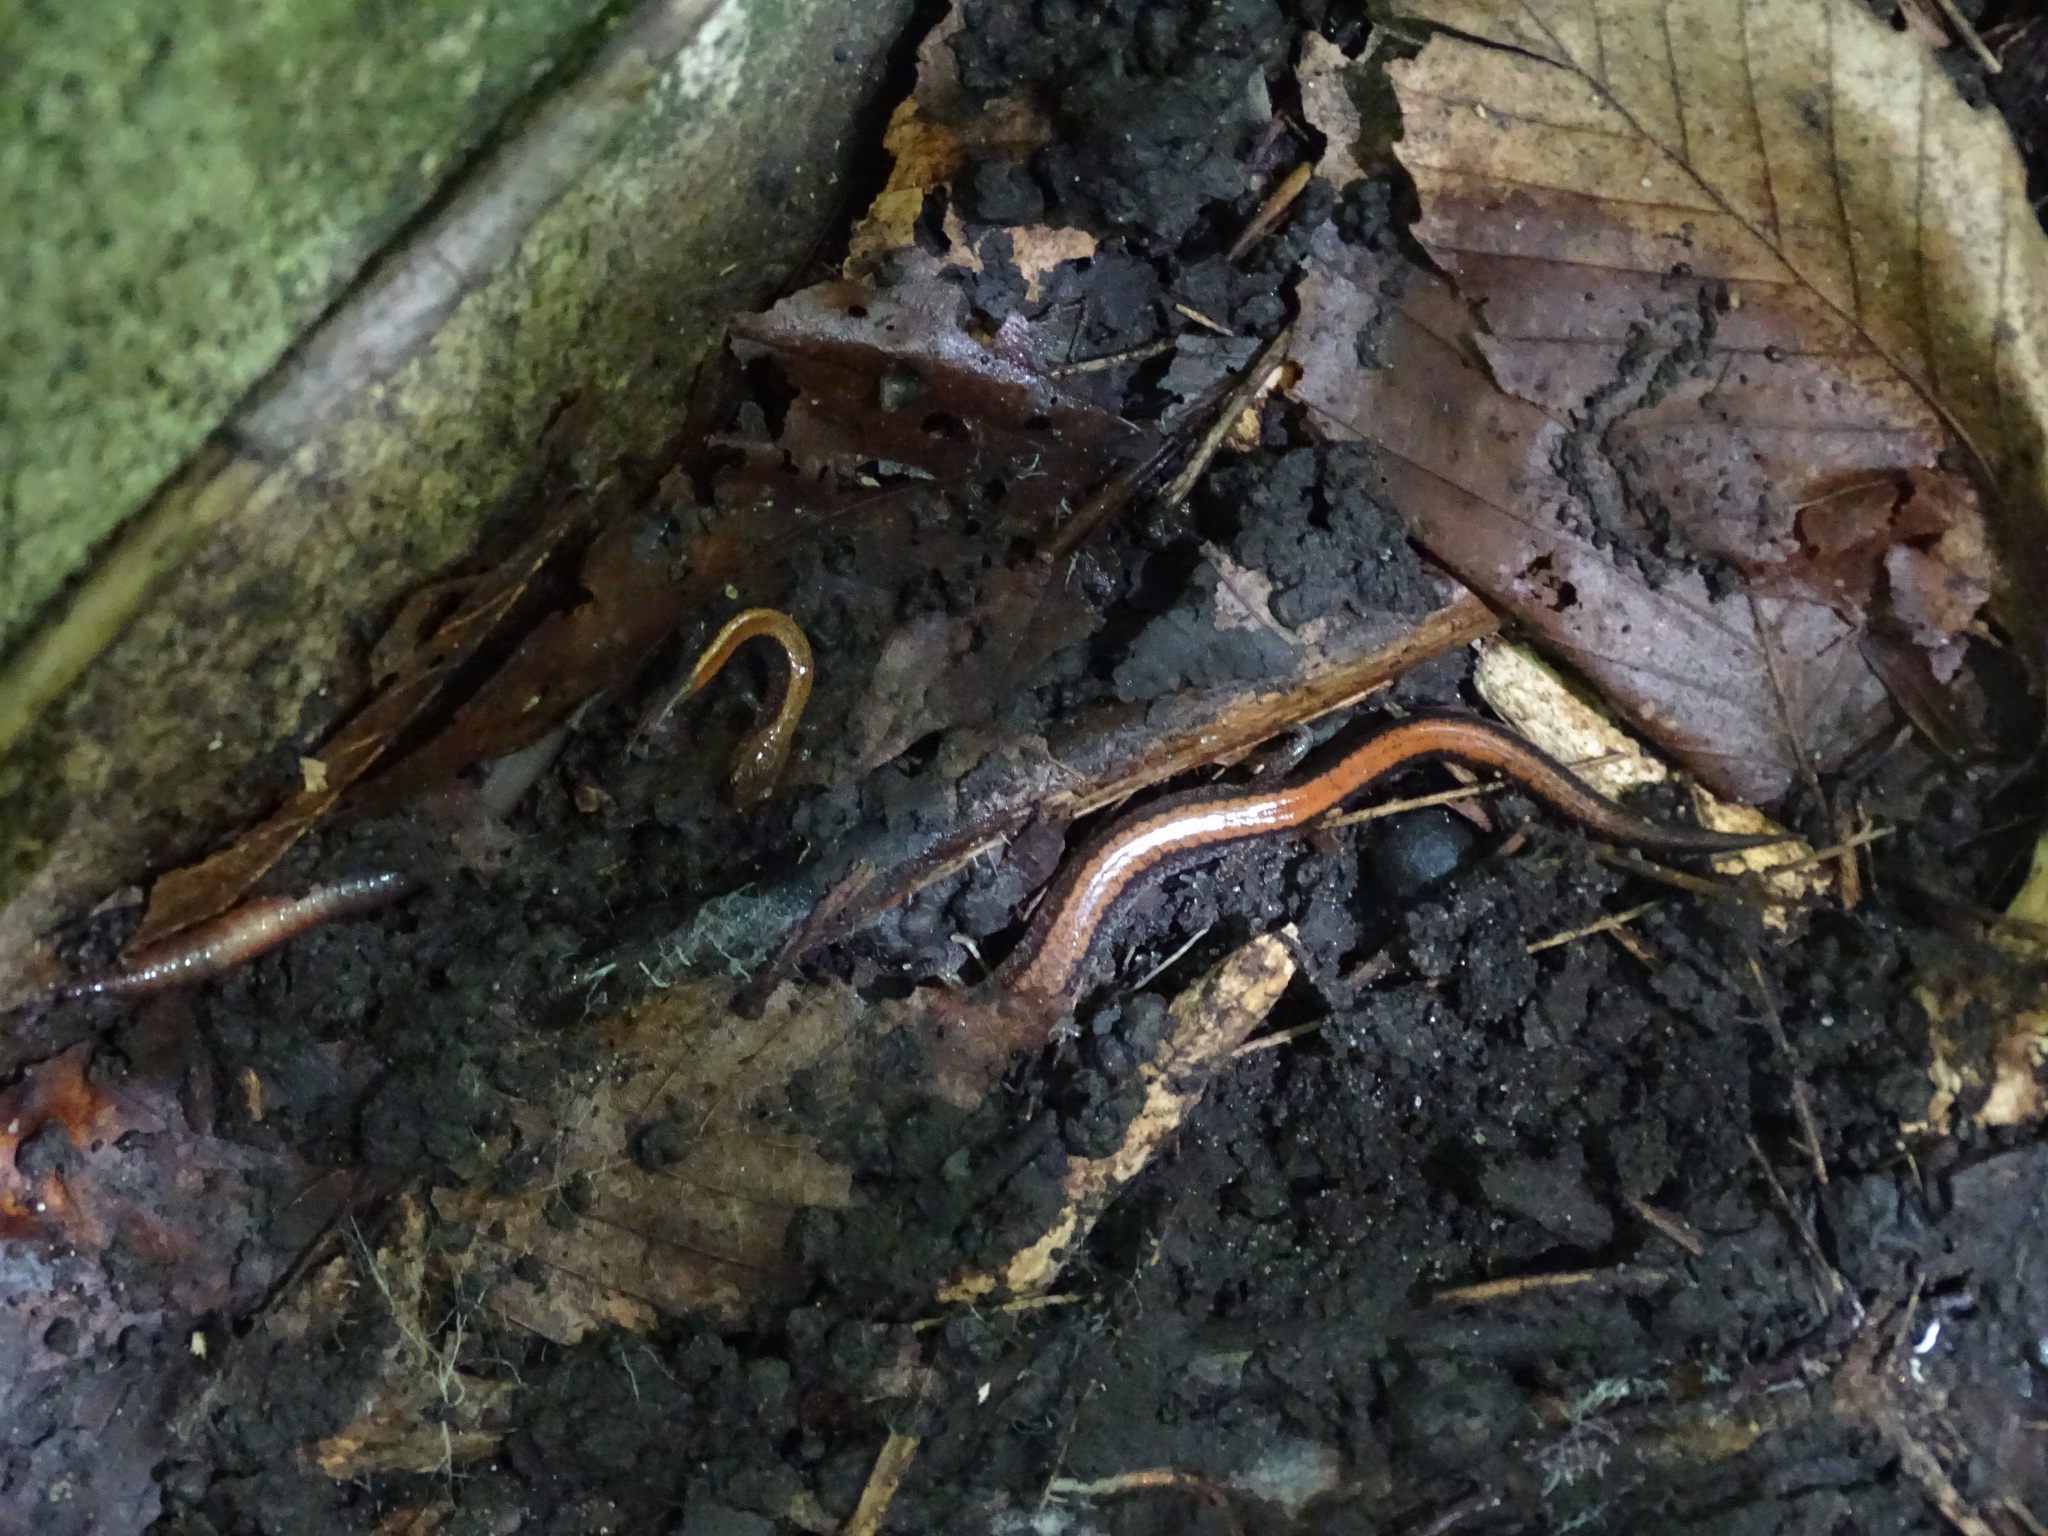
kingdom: Animalia
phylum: Chordata
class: Amphibia
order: Caudata
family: Plethodontidae
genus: Plethodon
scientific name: Plethodon cinereus
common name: Redback salamander
